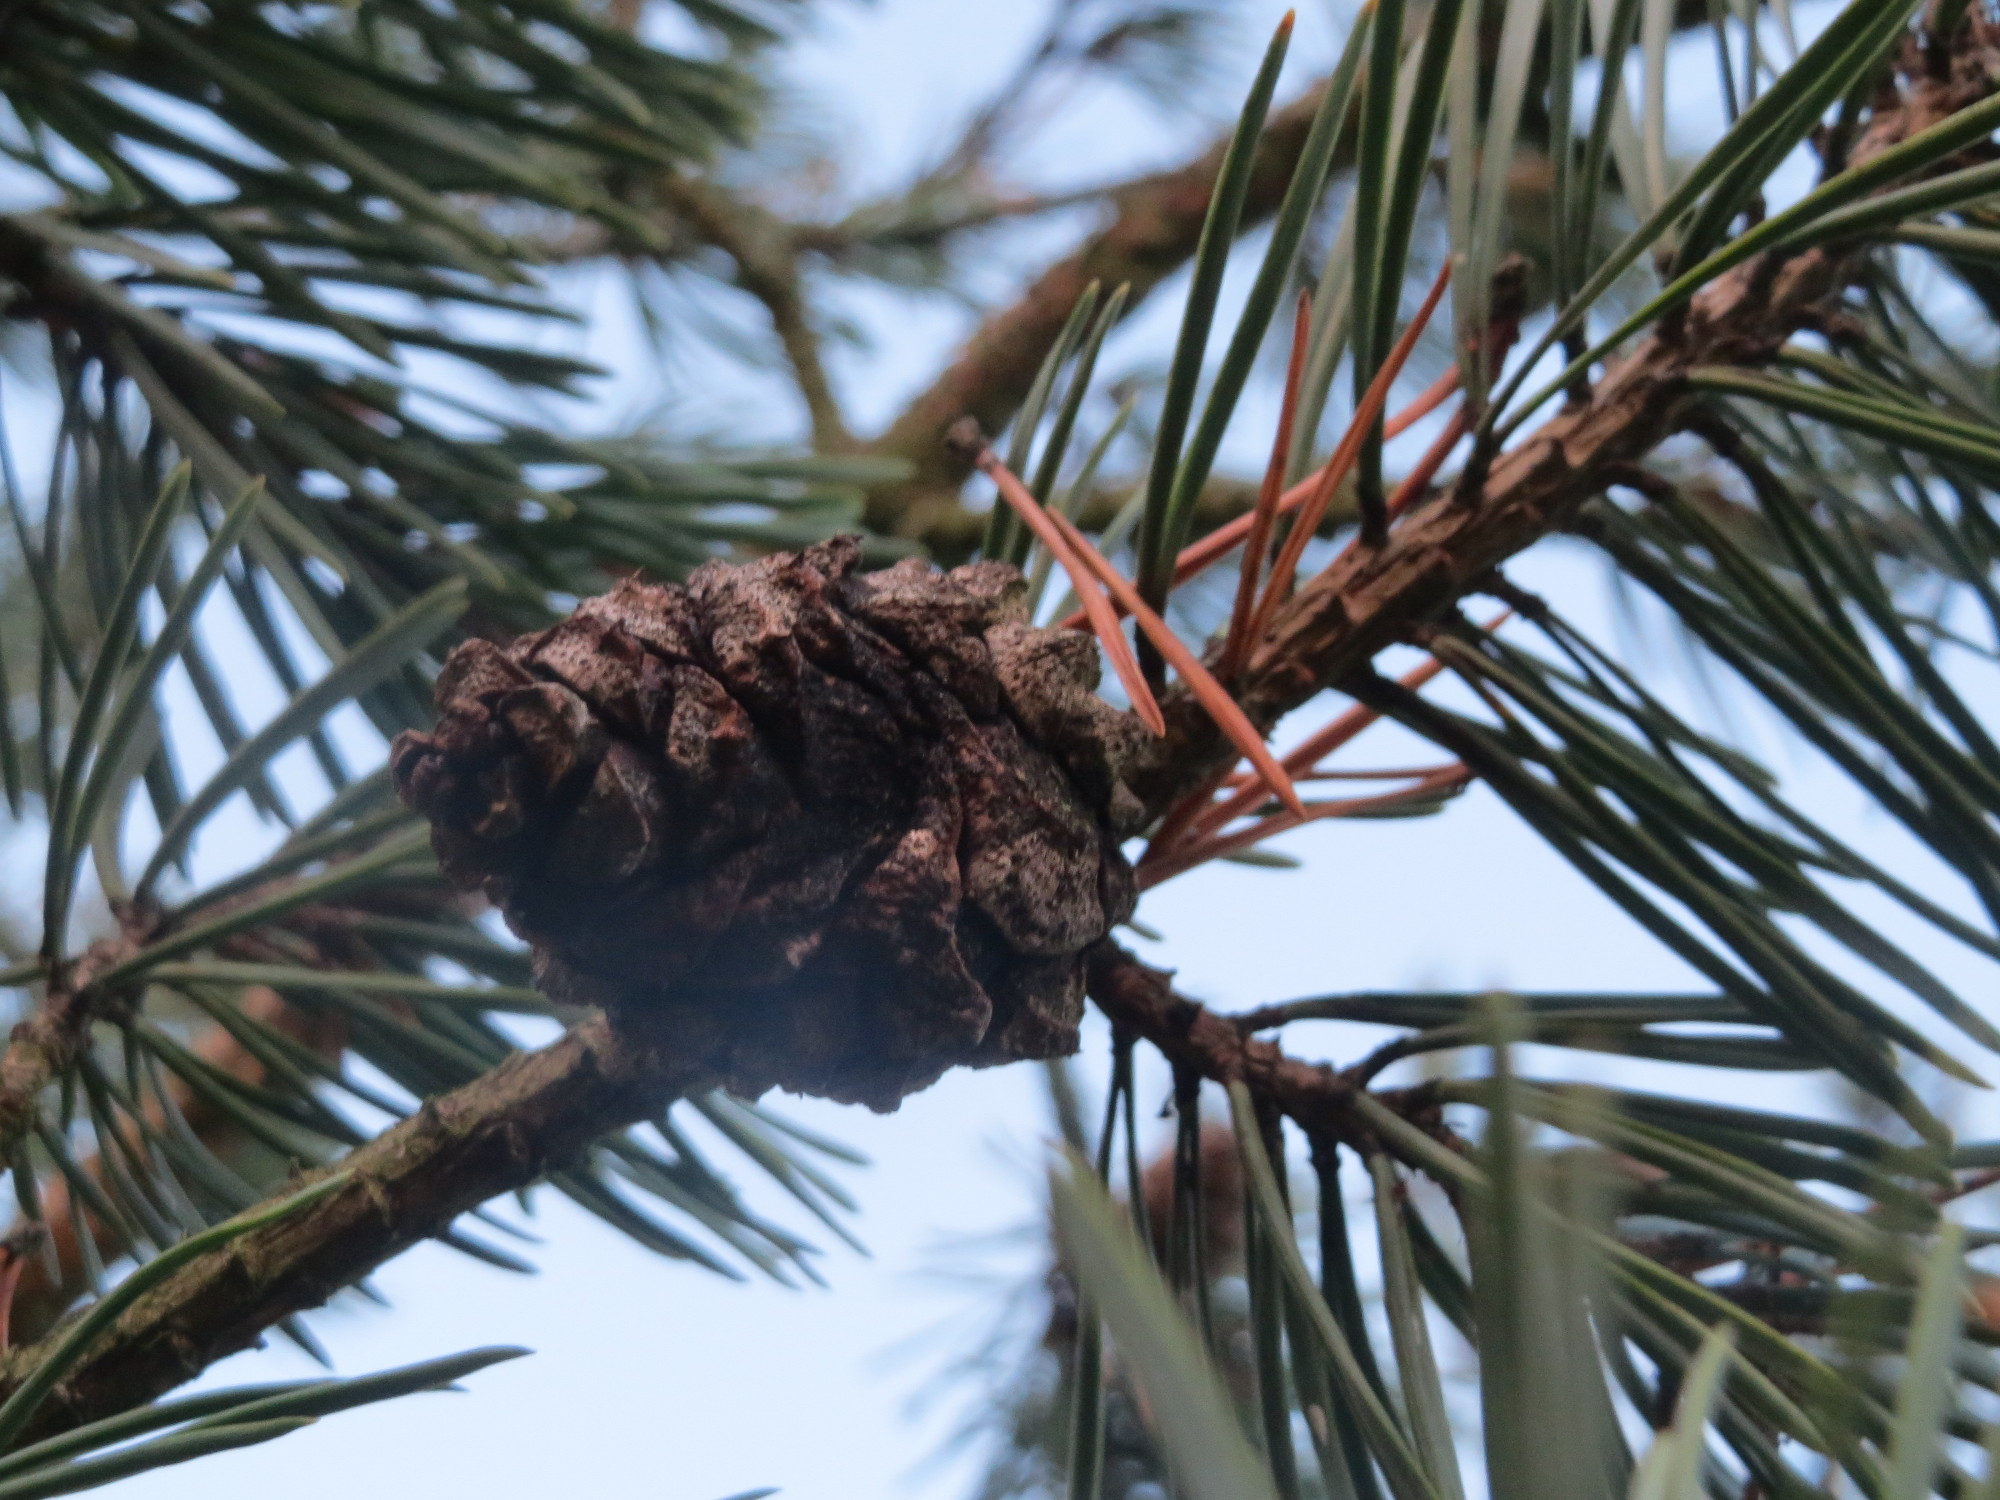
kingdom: Plantae
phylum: Tracheophyta
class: Pinopsida
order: Pinales
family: Pinaceae
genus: Pinus
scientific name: Pinus sylvestris
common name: Scots pine
